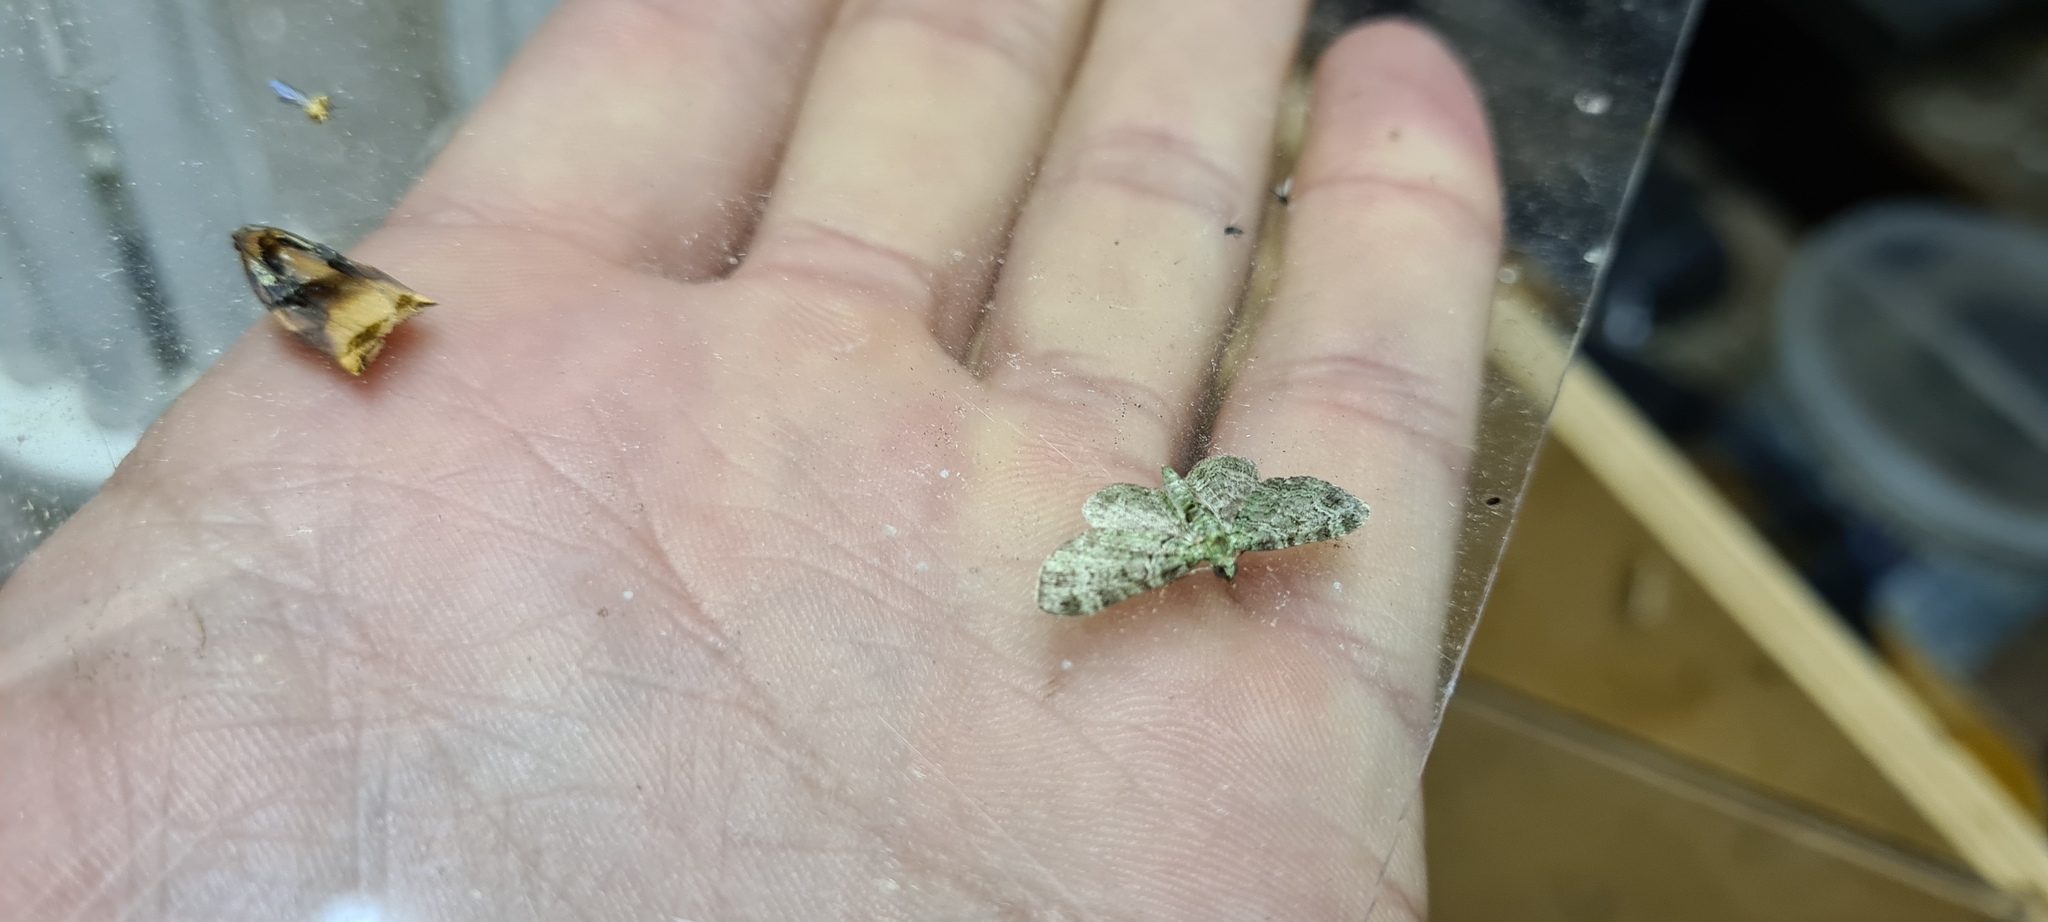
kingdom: Animalia
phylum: Arthropoda
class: Insecta
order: Lepidoptera
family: Geometridae
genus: Pasiphila
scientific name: Pasiphila rectangulata
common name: Green pug
